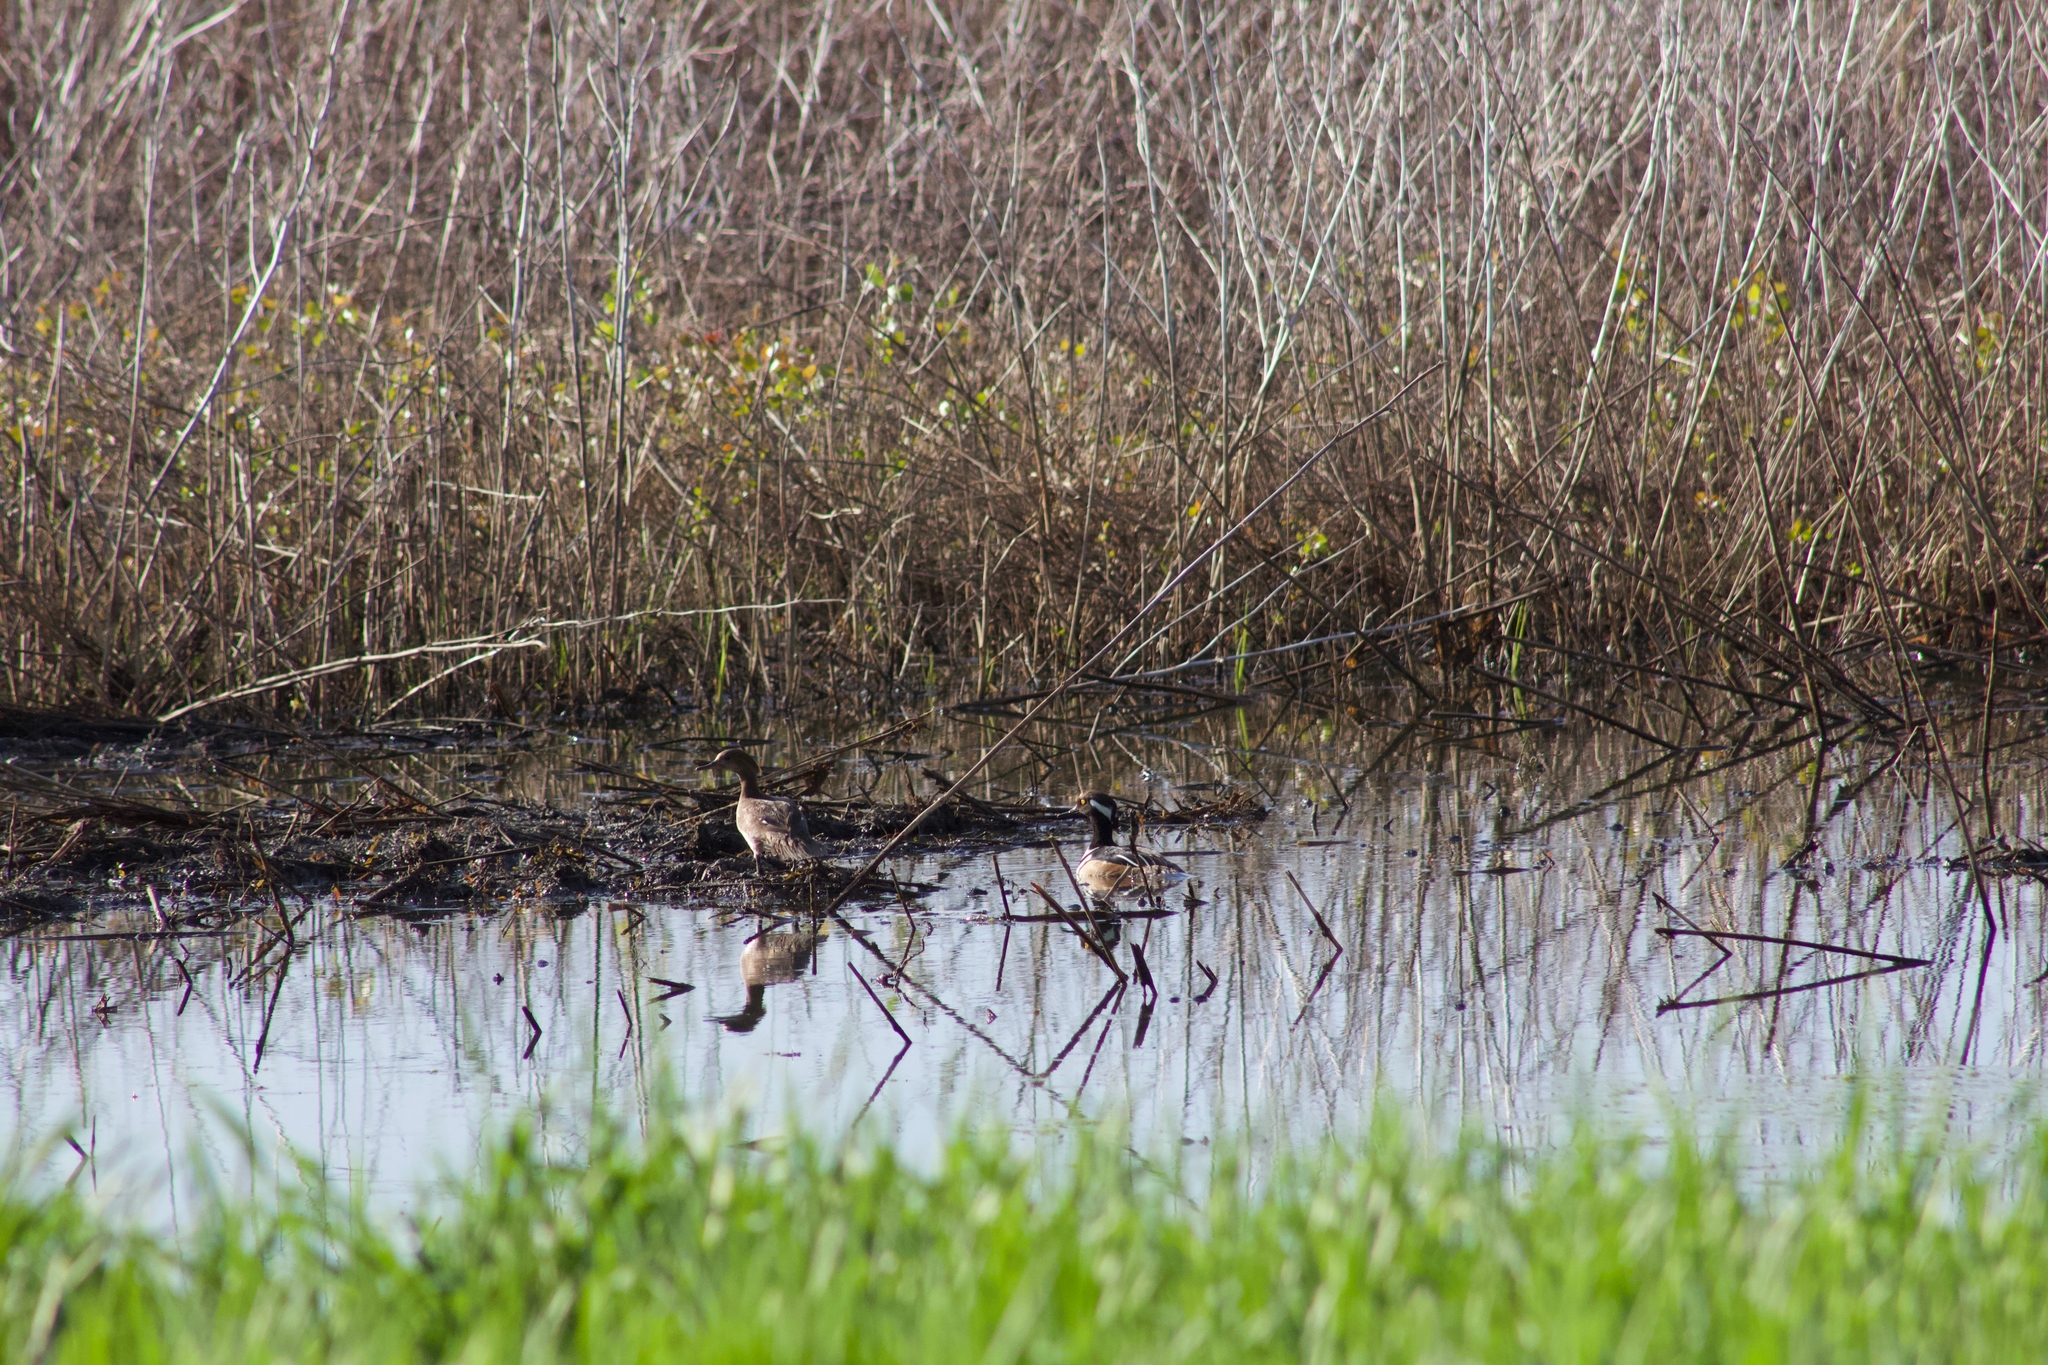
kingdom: Animalia
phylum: Chordata
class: Aves
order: Anseriformes
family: Anatidae
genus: Lophodytes
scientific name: Lophodytes cucullatus
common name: Hooded merganser
